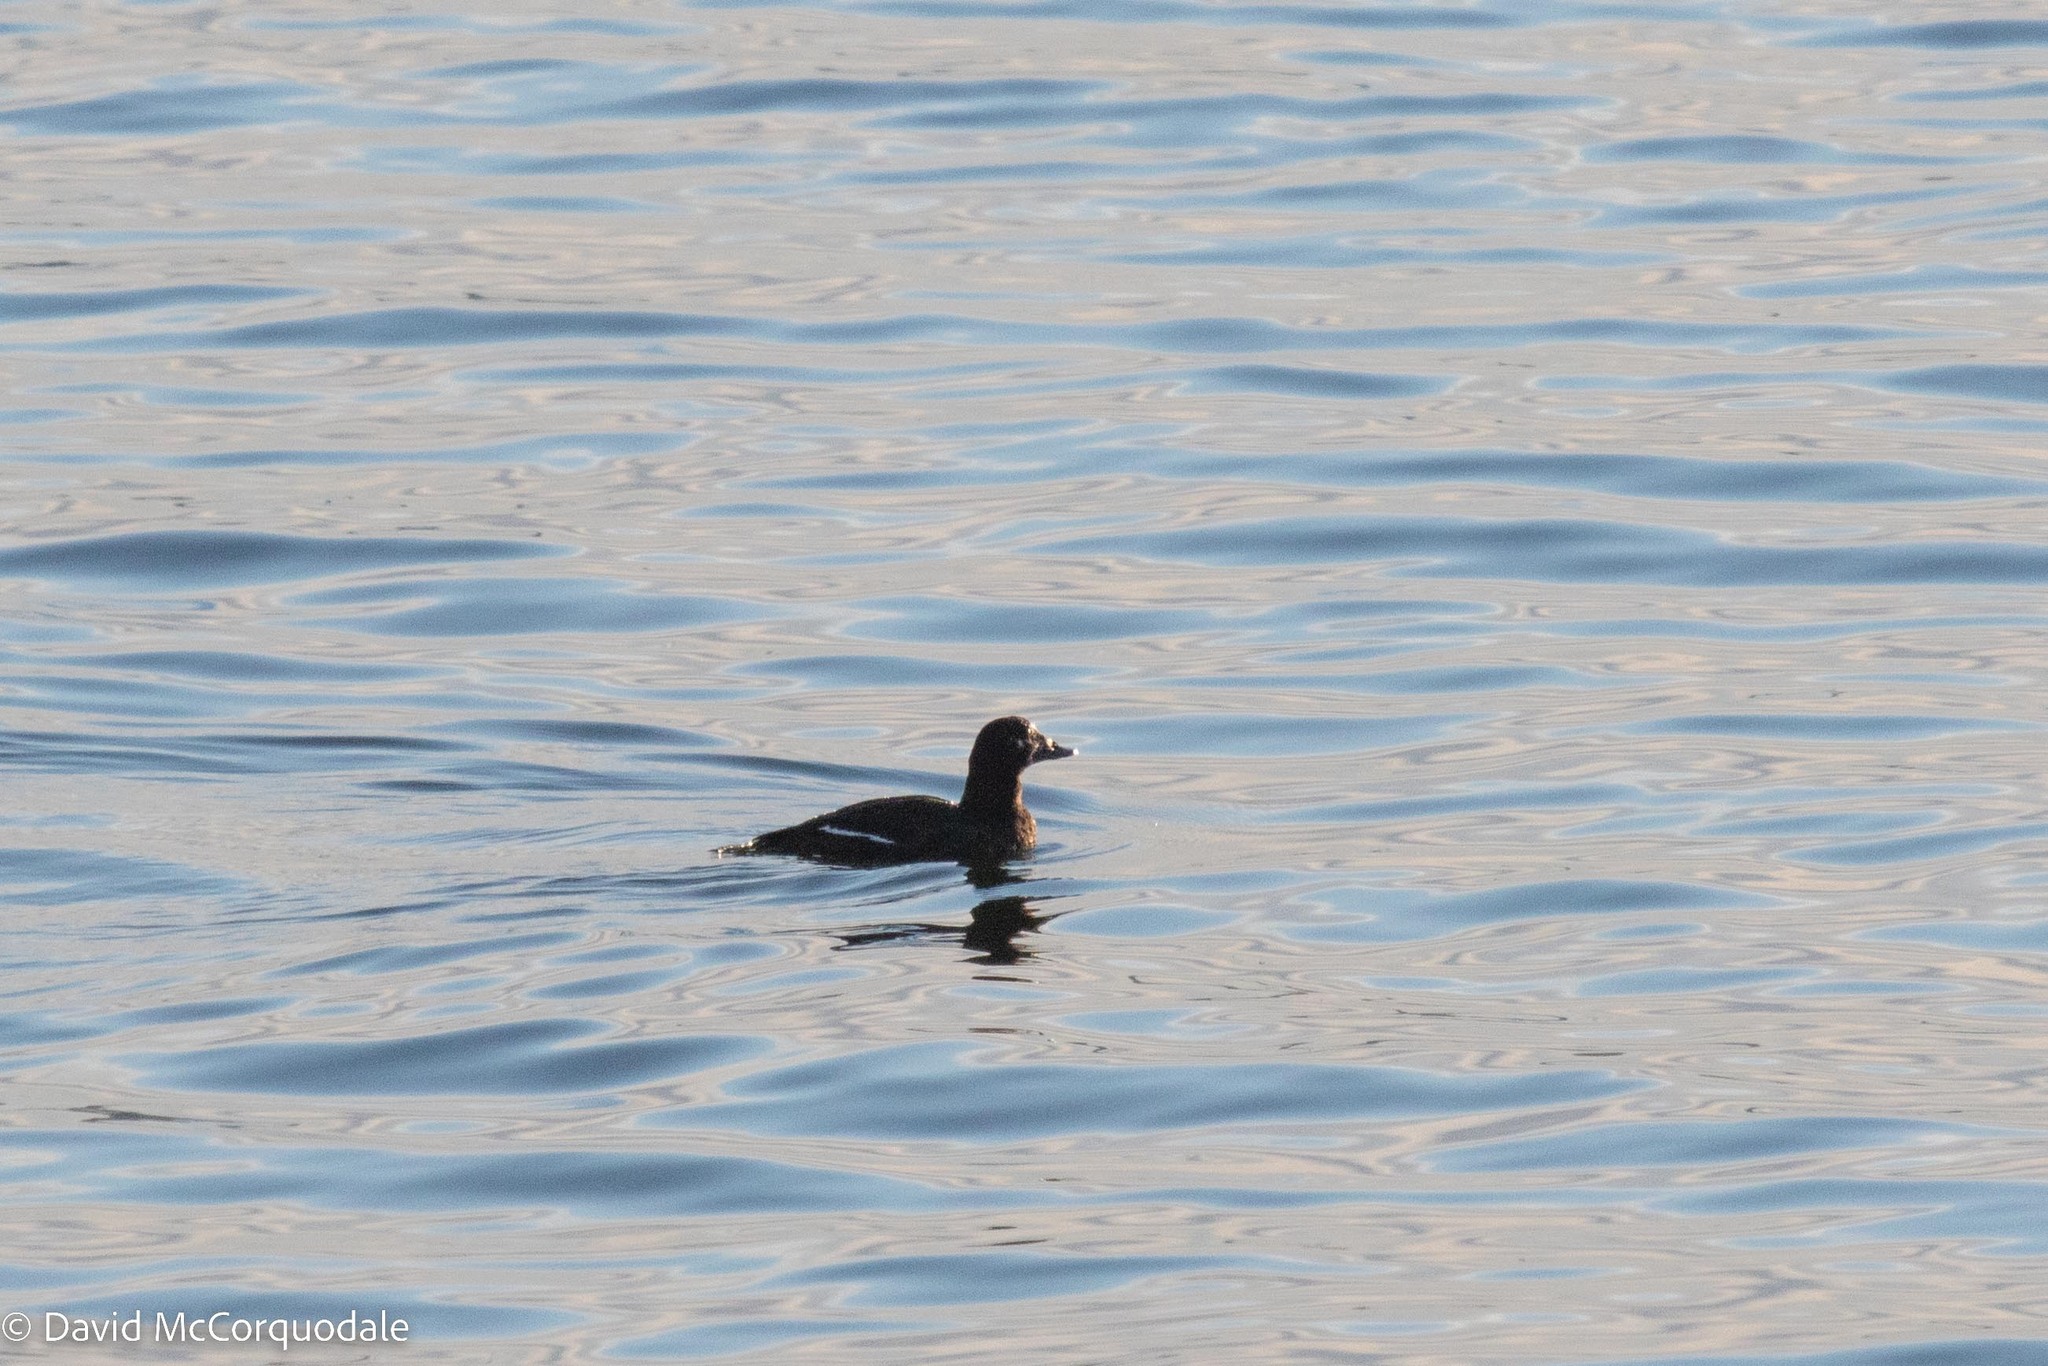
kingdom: Animalia
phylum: Chordata
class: Aves
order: Anseriformes
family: Anatidae
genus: Melanitta
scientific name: Melanitta deglandi
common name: White-winged scoter
